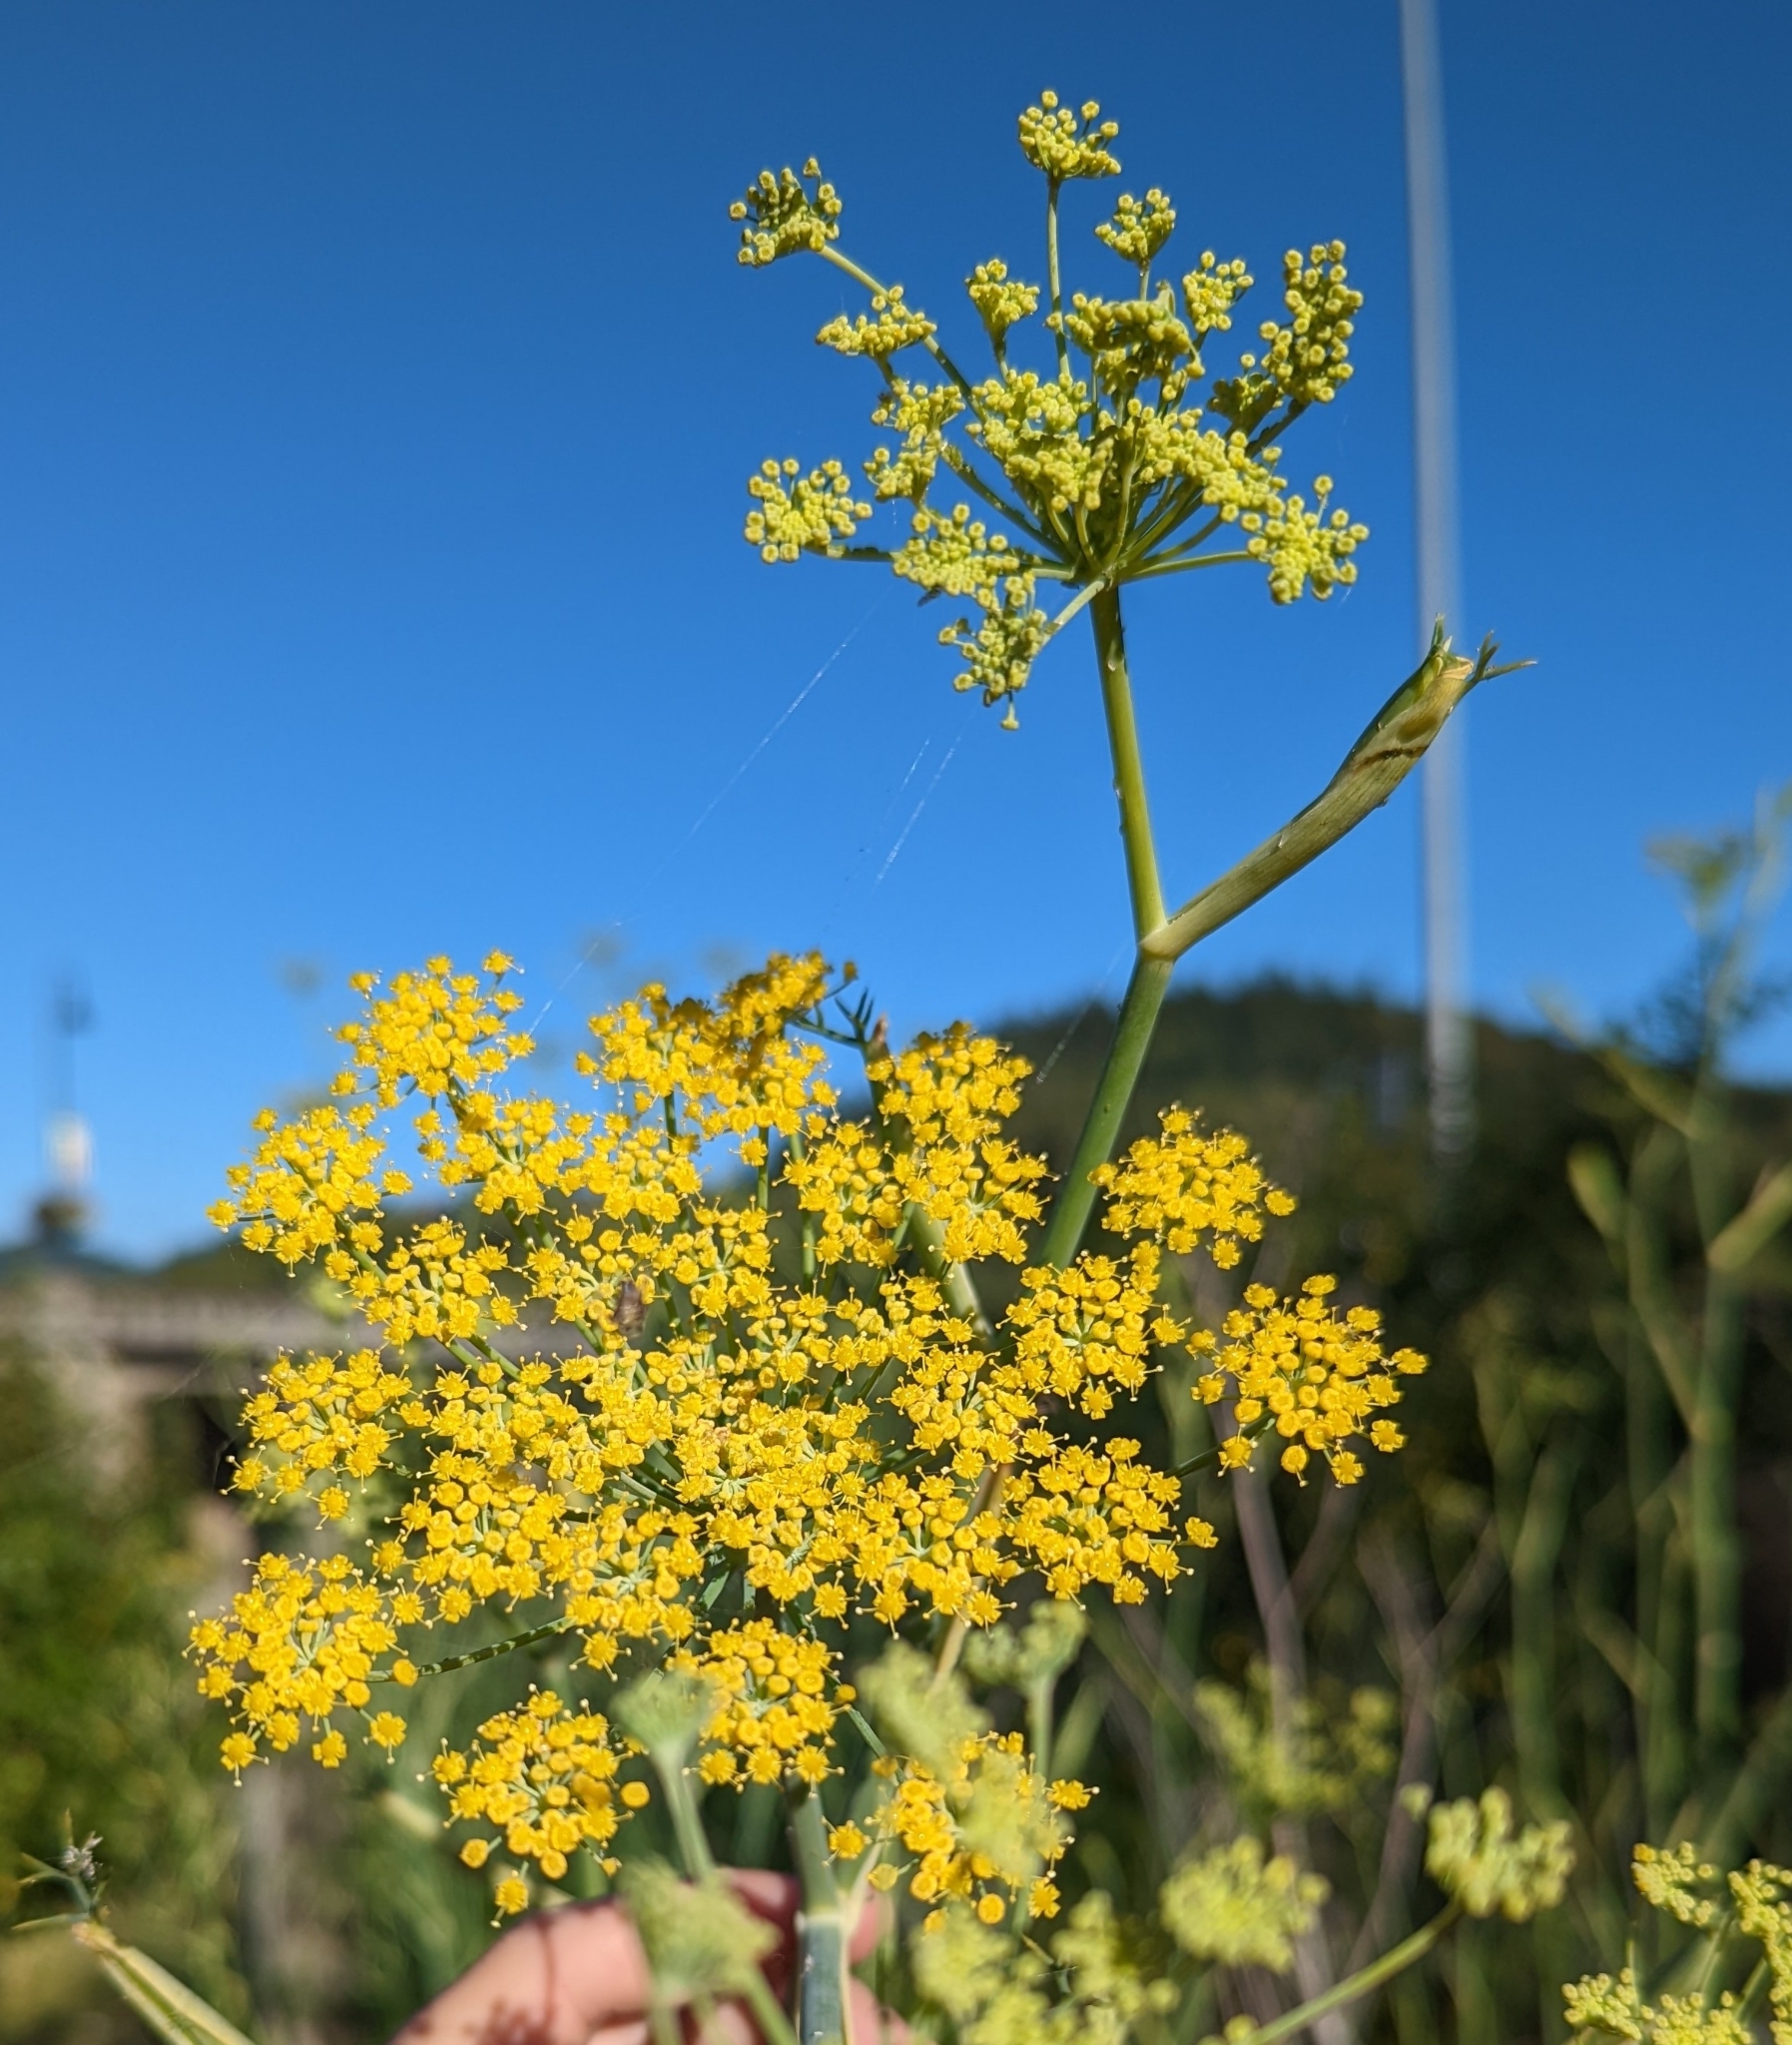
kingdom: Plantae
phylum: Tracheophyta
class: Magnoliopsida
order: Apiales
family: Apiaceae
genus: Foeniculum
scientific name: Foeniculum vulgare
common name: Fennel
